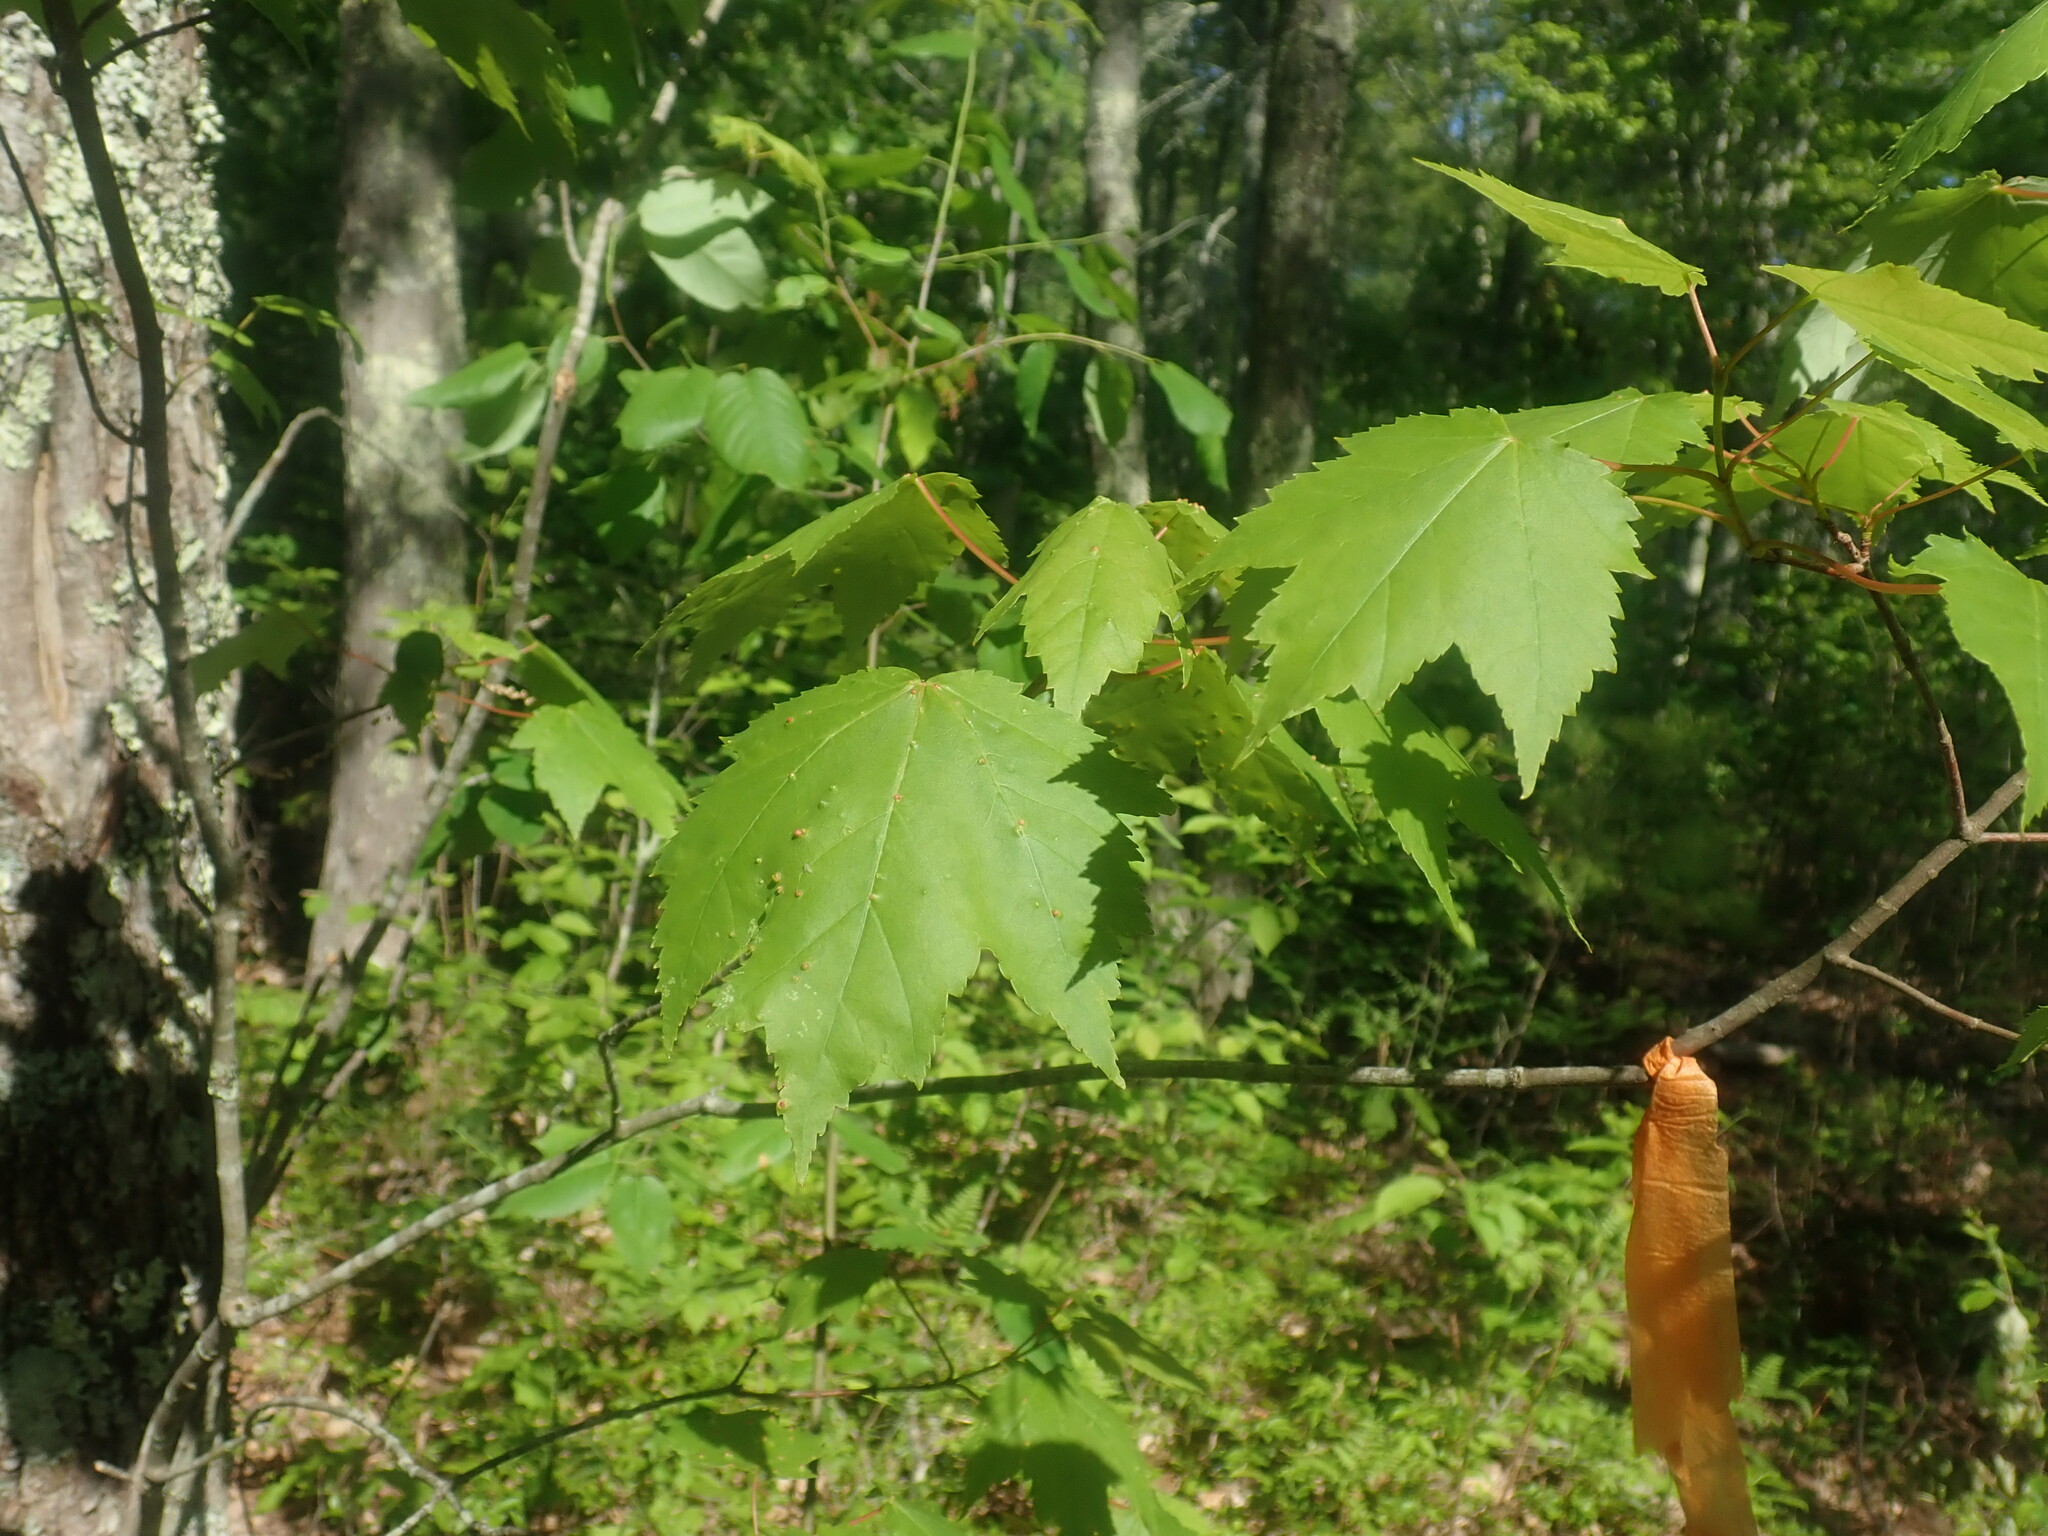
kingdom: Plantae
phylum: Tracheophyta
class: Magnoliopsida
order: Sapindales
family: Sapindaceae
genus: Acer
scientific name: Acer rubrum
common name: Red maple
